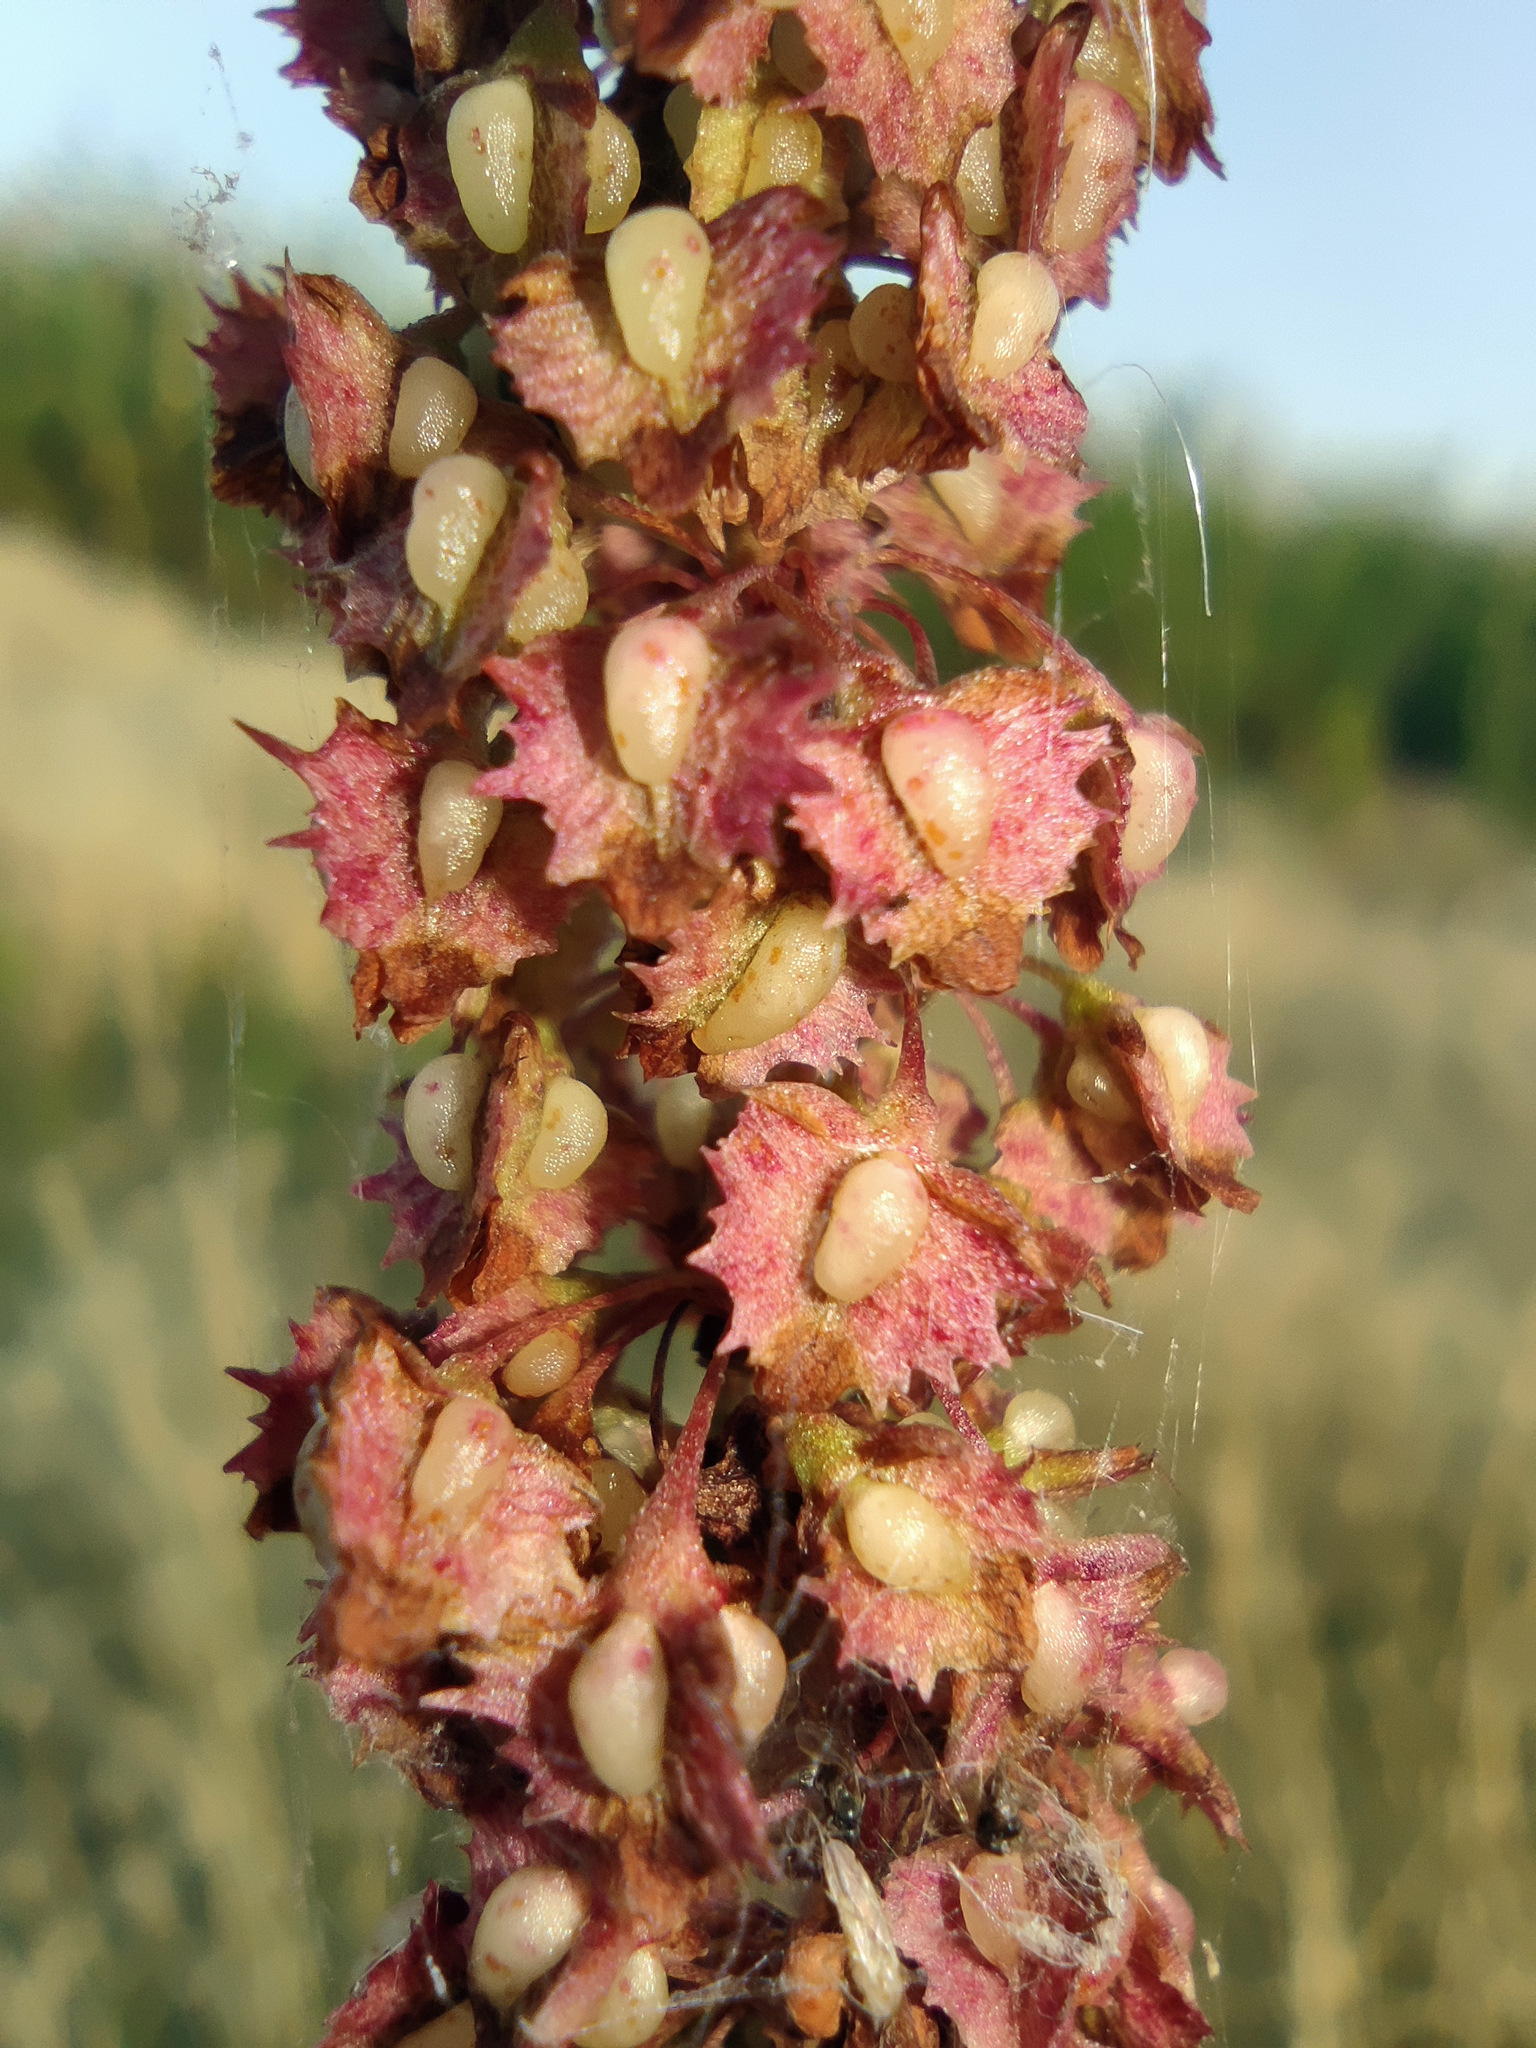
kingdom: Plantae
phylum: Tracheophyta
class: Magnoliopsida
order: Caryophyllales
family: Polygonaceae
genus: Rumex
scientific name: Rumex stenophyllus
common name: Narrowleaf dock
